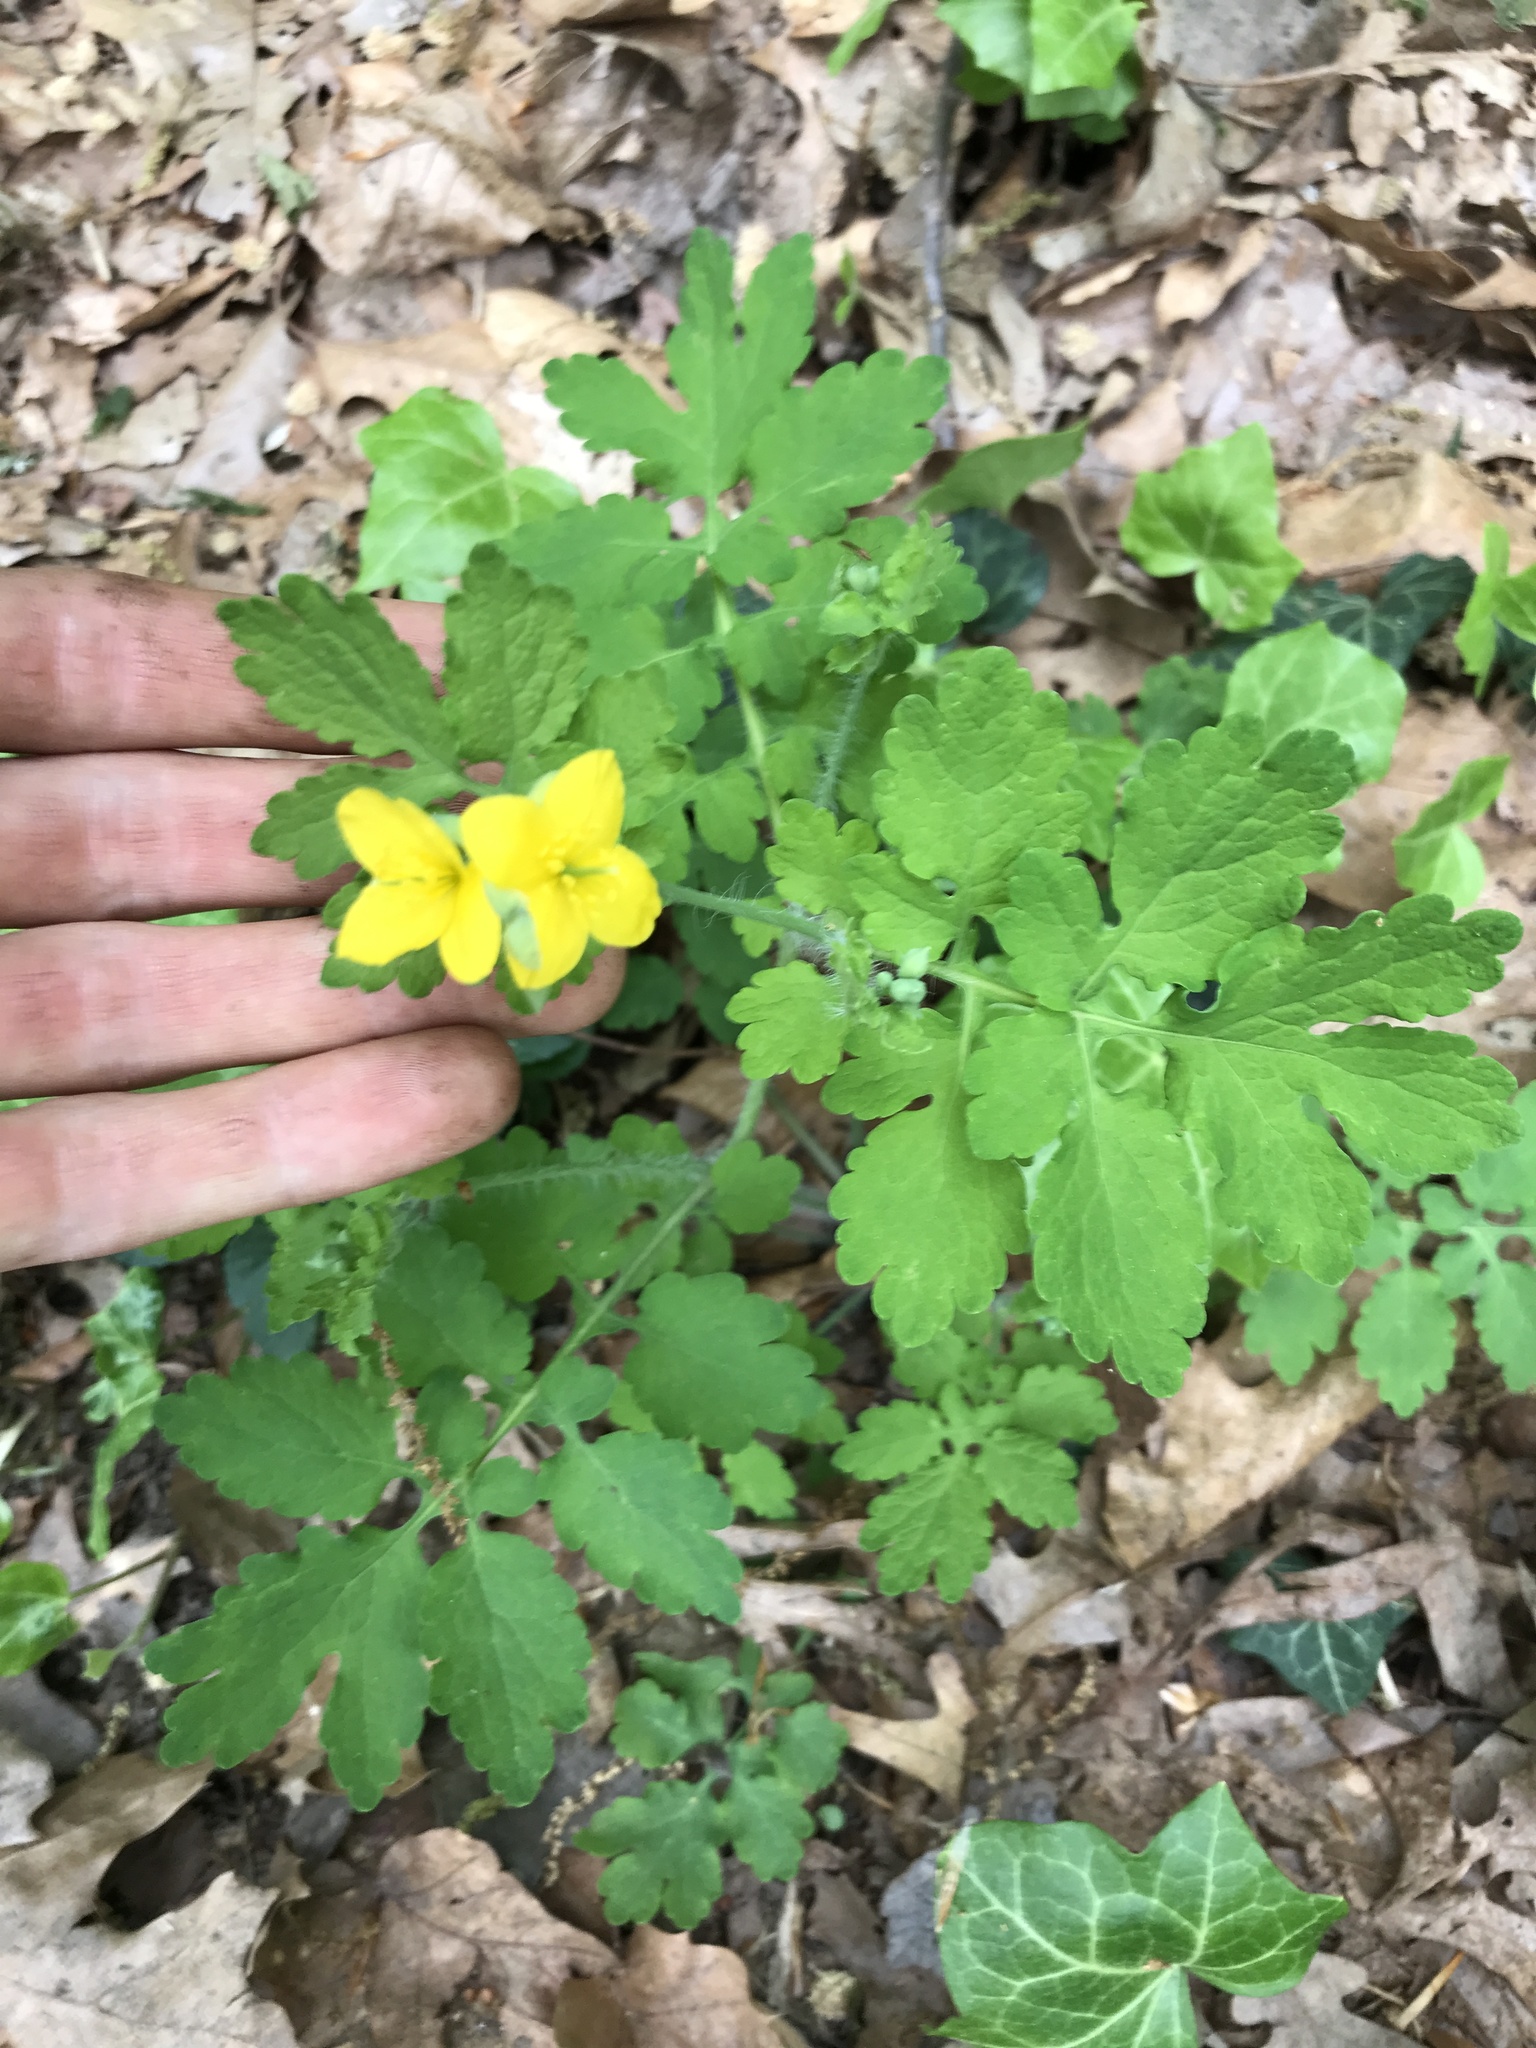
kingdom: Plantae
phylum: Tracheophyta
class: Magnoliopsida
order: Ranunculales
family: Papaveraceae
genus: Chelidonium
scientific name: Chelidonium majus
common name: Greater celandine
